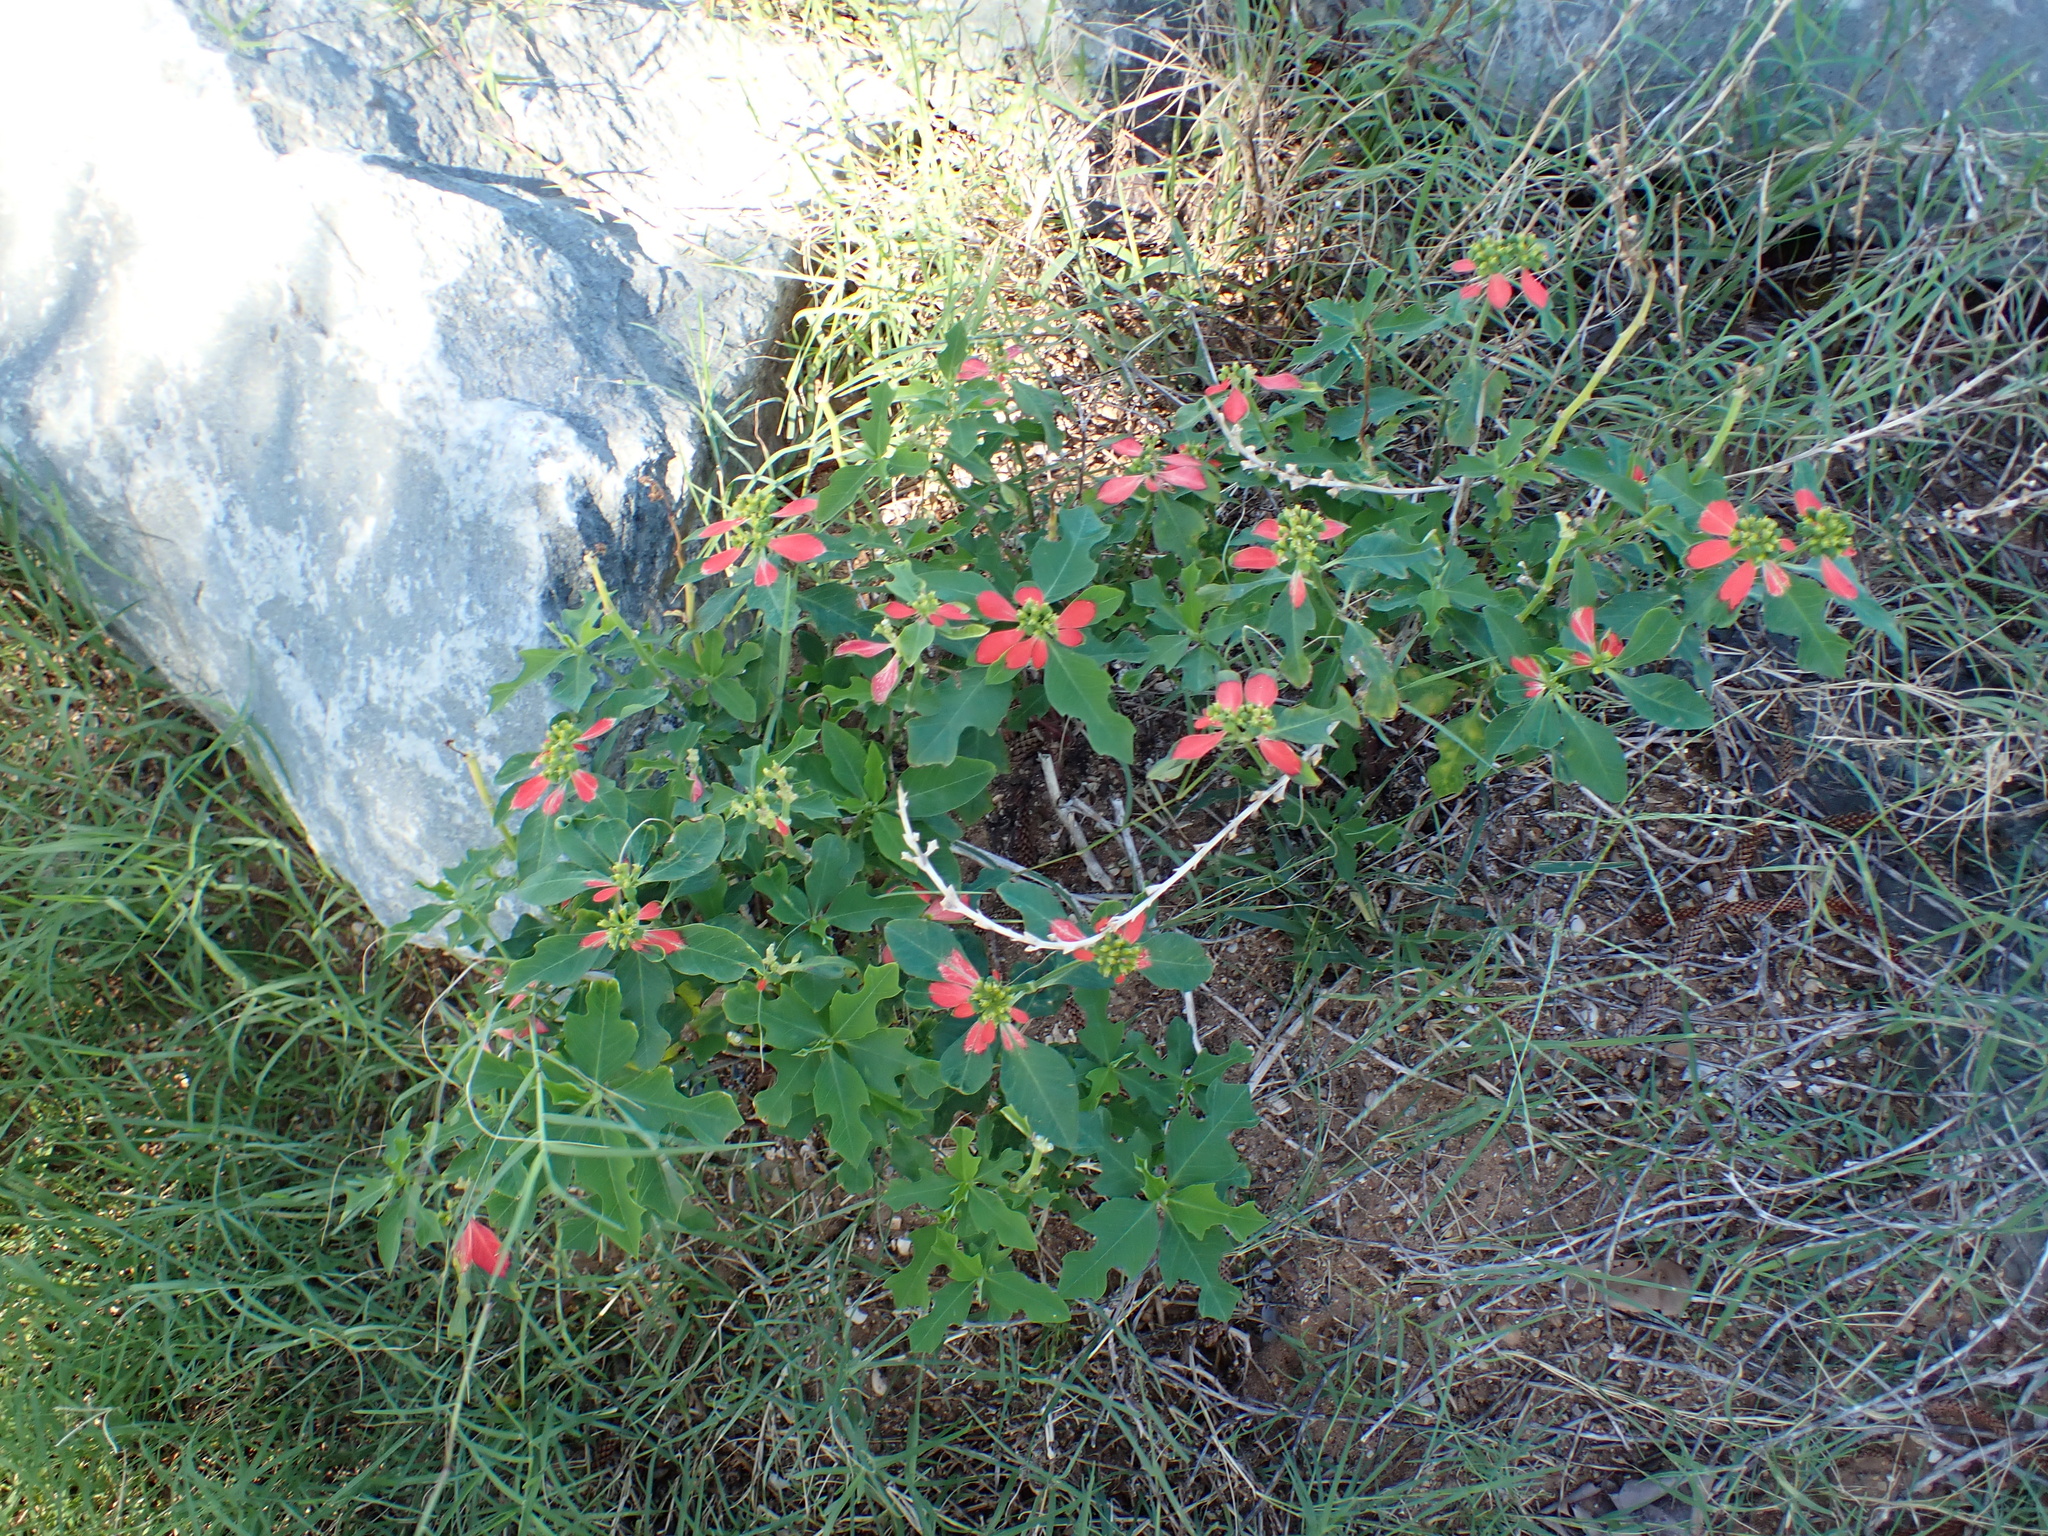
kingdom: Plantae
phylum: Tracheophyta
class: Magnoliopsida
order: Malpighiales
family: Euphorbiaceae
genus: Euphorbia
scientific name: Euphorbia heterophylla
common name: Mexican fireplant
